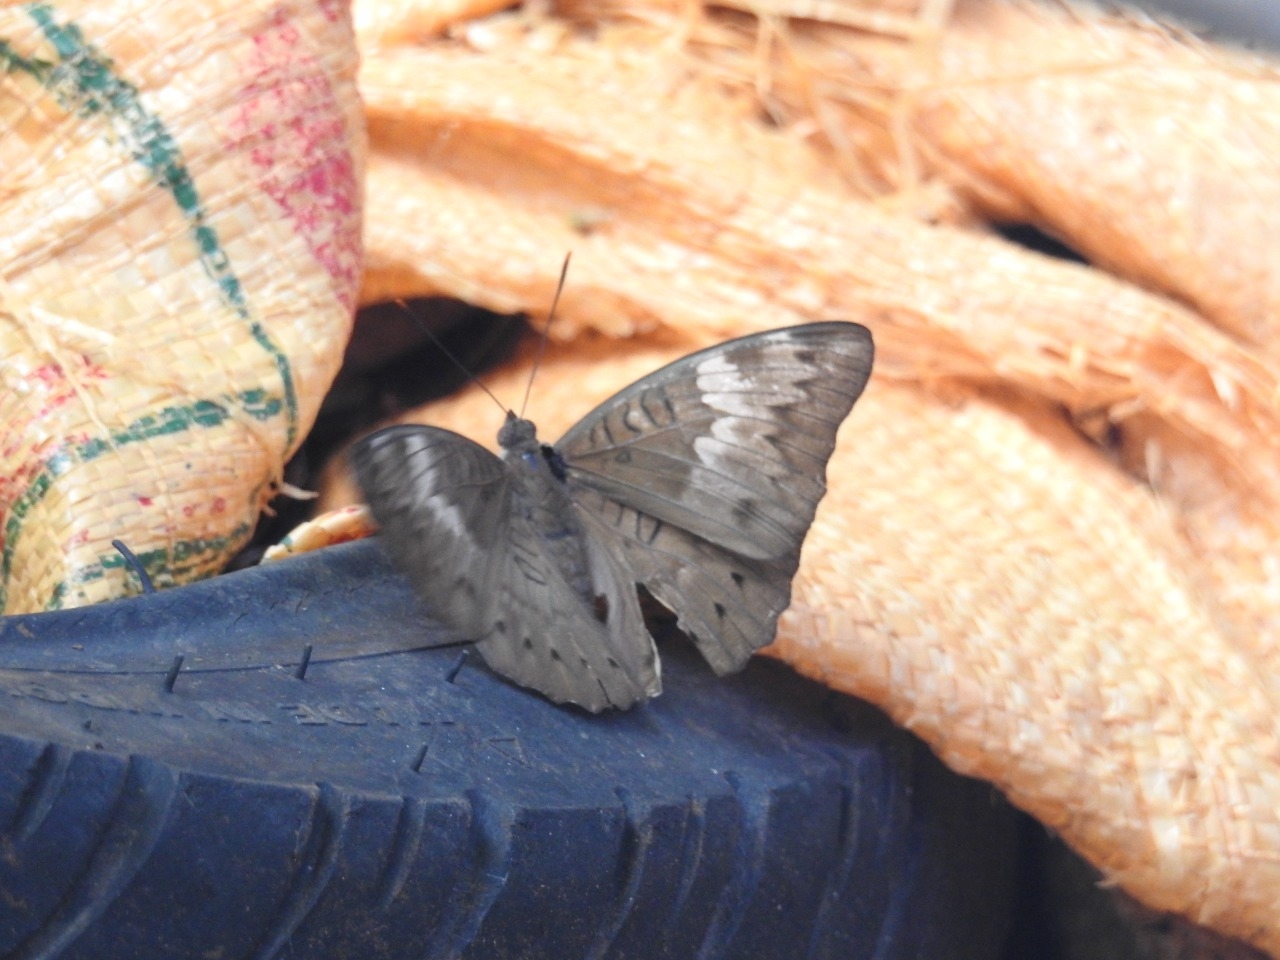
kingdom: Animalia
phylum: Arthropoda
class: Insecta
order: Lepidoptera
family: Nymphalidae
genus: Euthalia
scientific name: Euthalia aconthea
